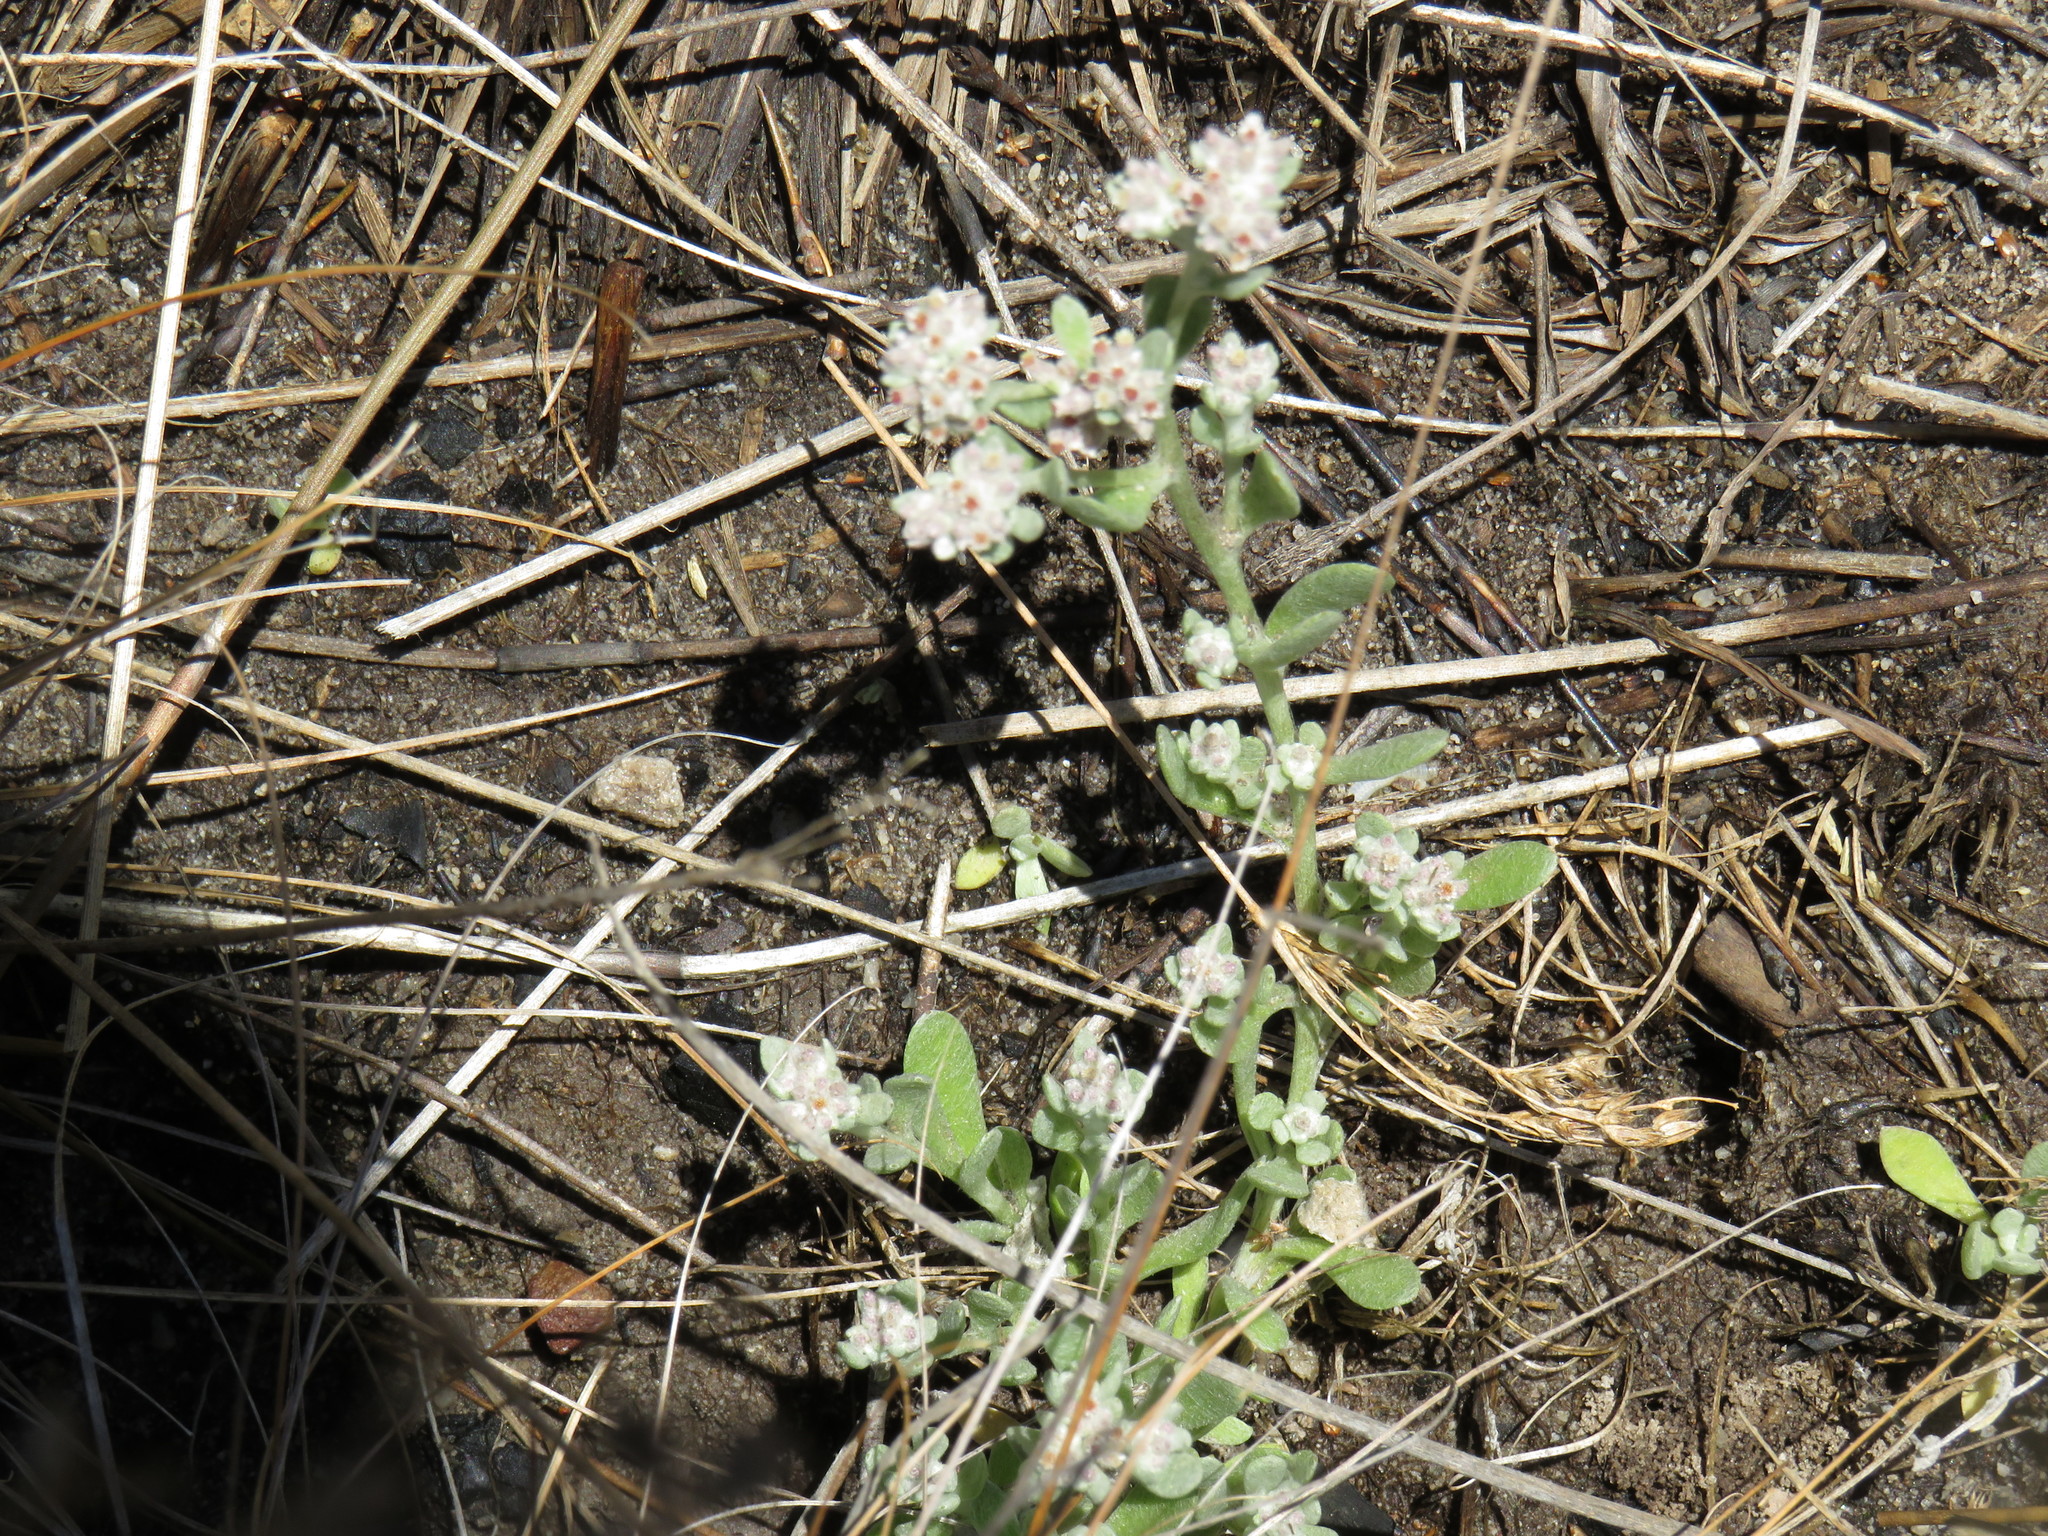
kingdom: Plantae
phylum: Tracheophyta
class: Magnoliopsida
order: Asterales
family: Asteraceae
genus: Vellereophyton
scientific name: Vellereophyton dealbatum
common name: White-cudweed
